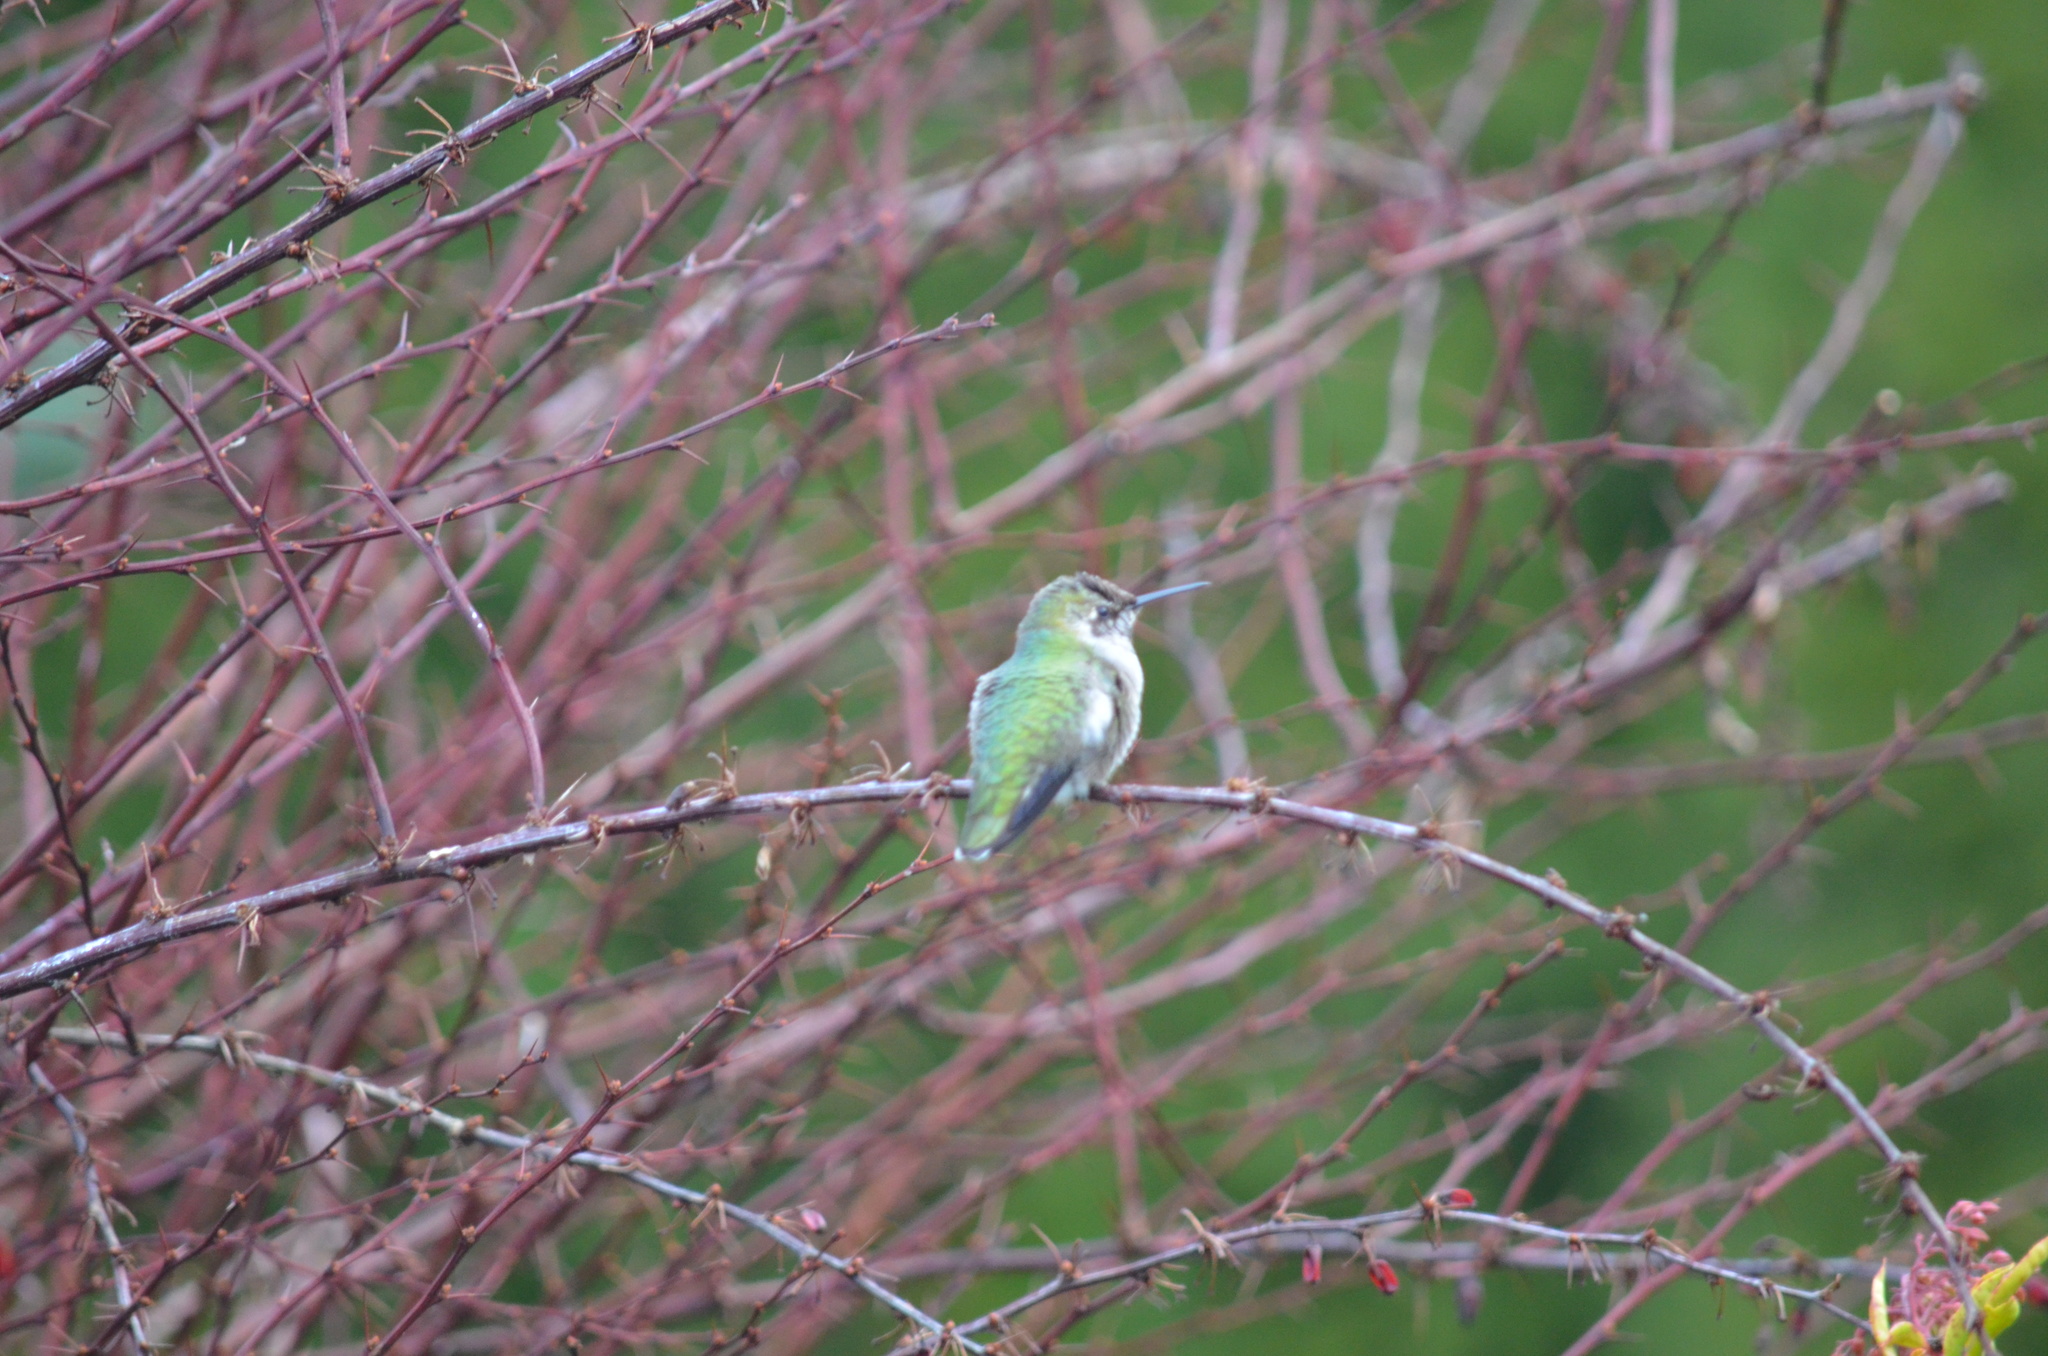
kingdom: Animalia
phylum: Chordata
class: Aves
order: Apodiformes
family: Trochilidae
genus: Calypte
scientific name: Calypte anna
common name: Anna's hummingbird
